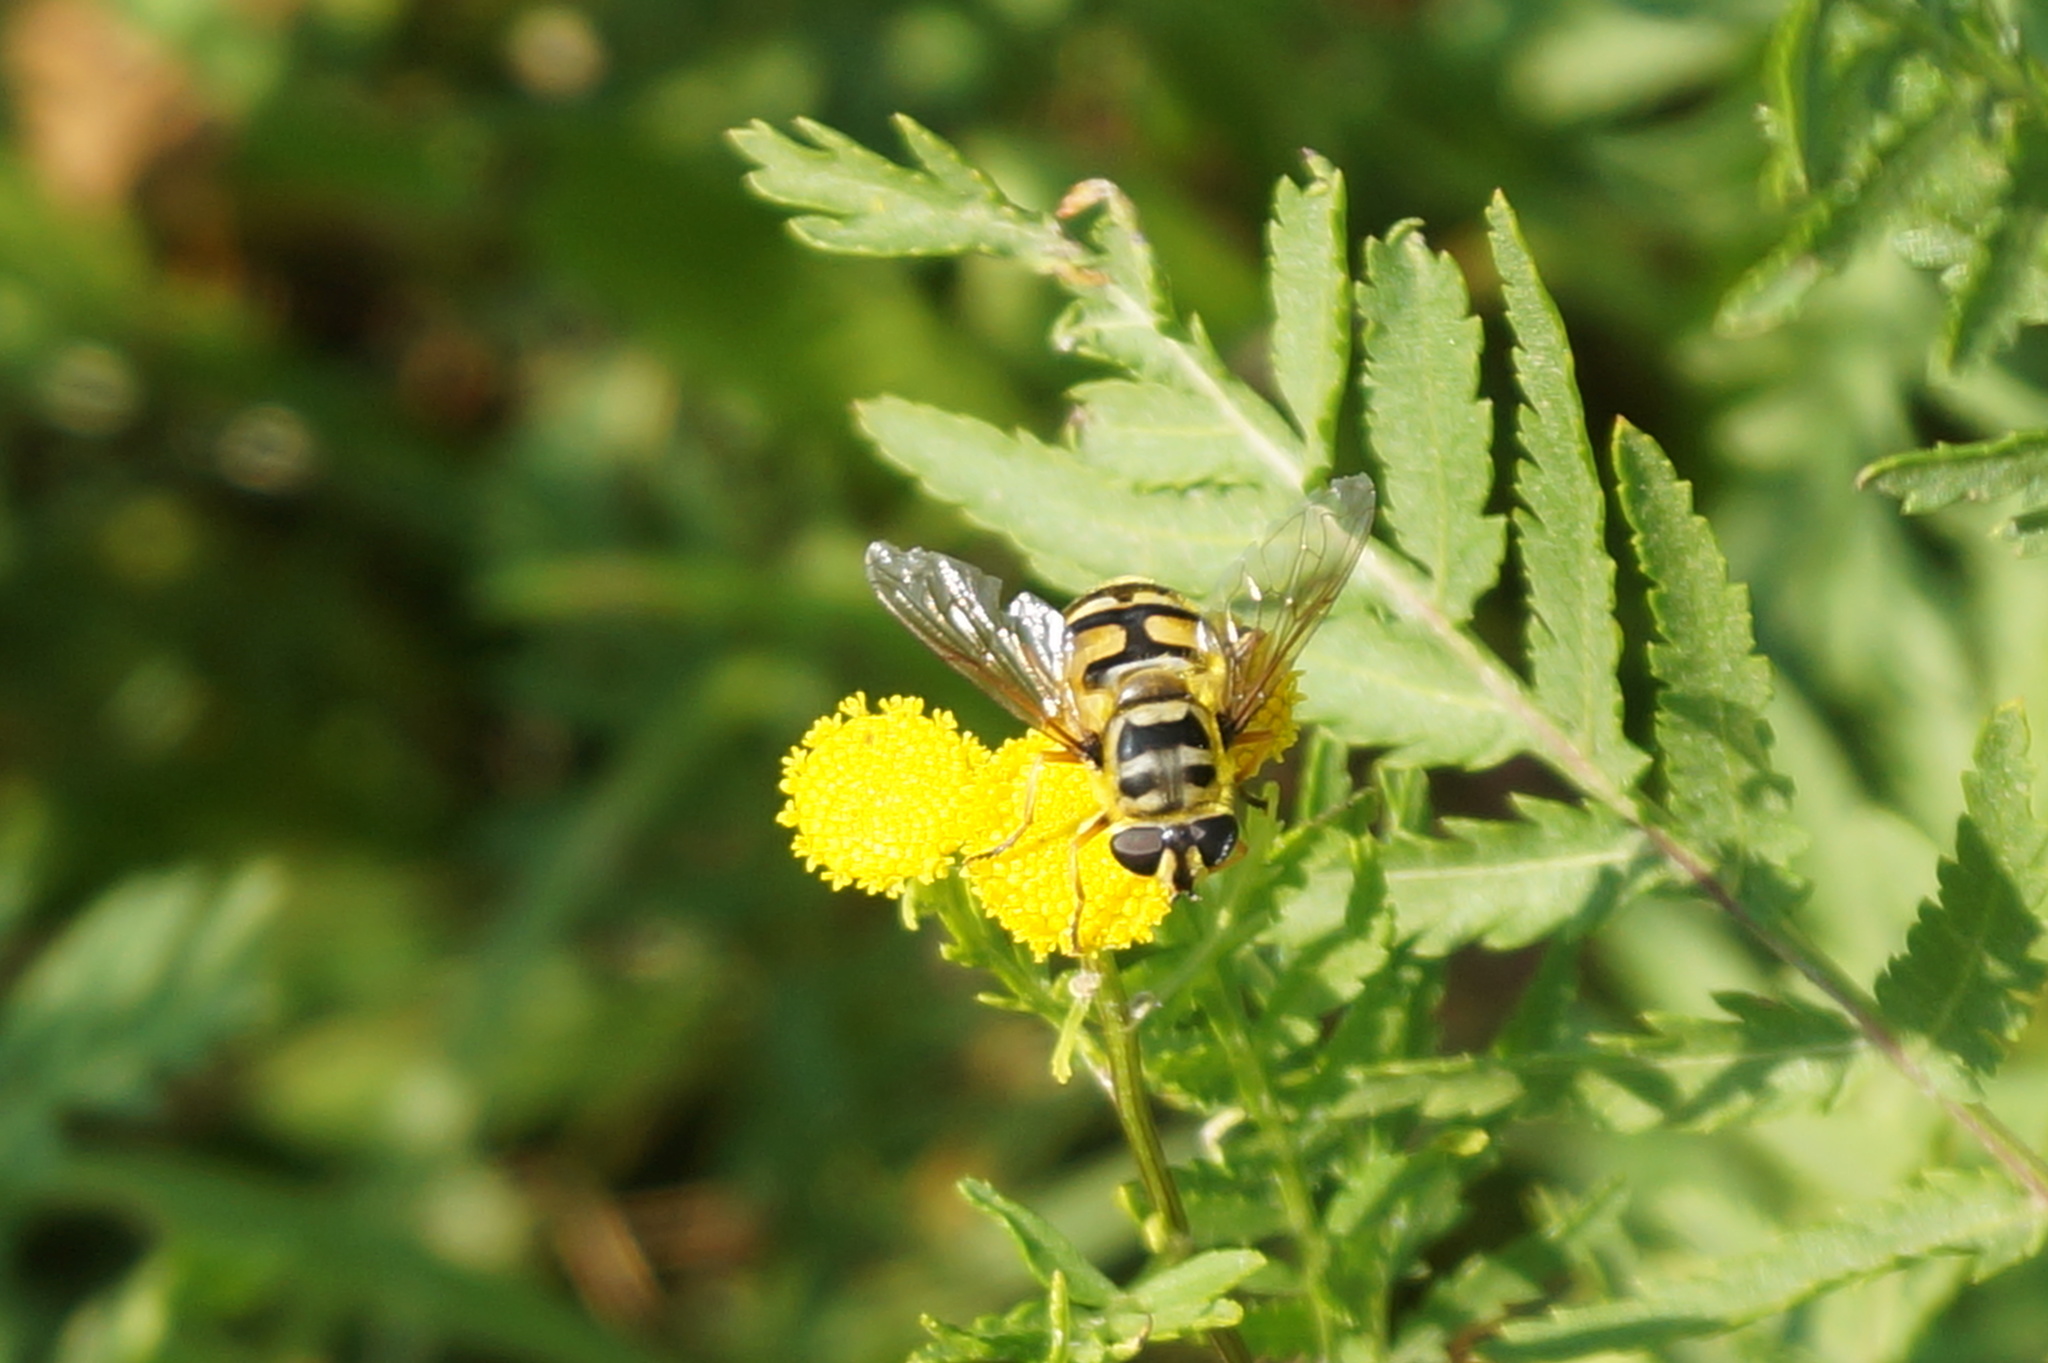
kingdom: Animalia
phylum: Arthropoda
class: Insecta
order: Diptera
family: Syrphidae
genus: Myathropa
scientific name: Myathropa florea
